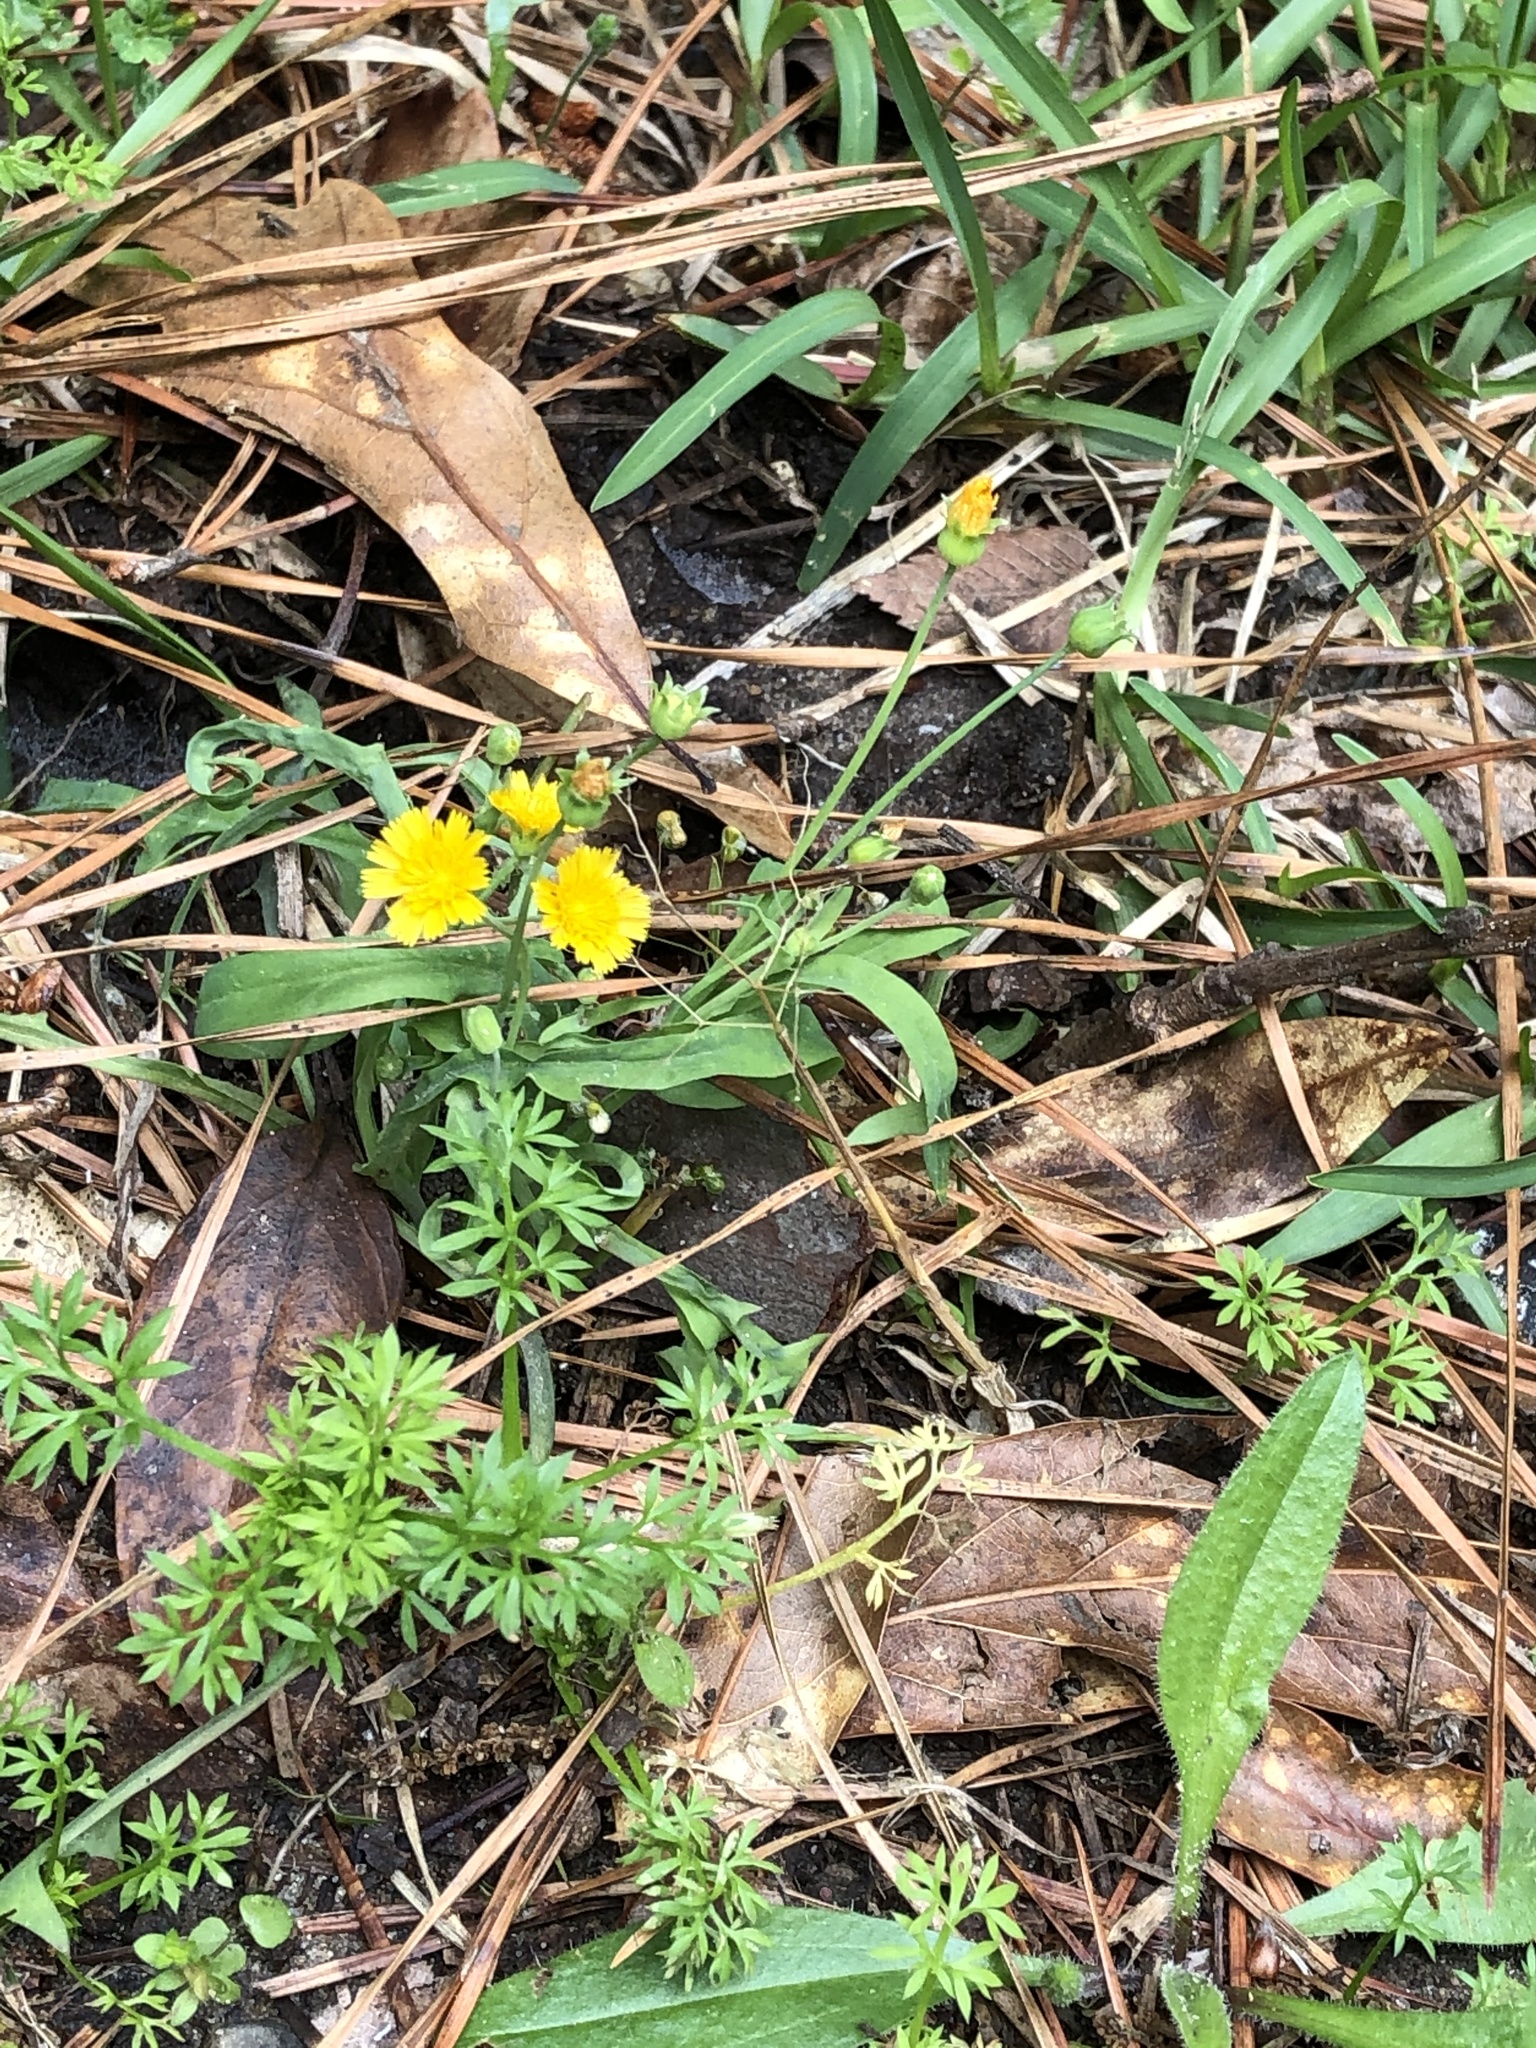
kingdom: Plantae
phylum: Tracheophyta
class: Magnoliopsida
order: Asterales
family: Asteraceae
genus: Krigia
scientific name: Krigia virginica
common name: Virginia dwarf-dandelion
